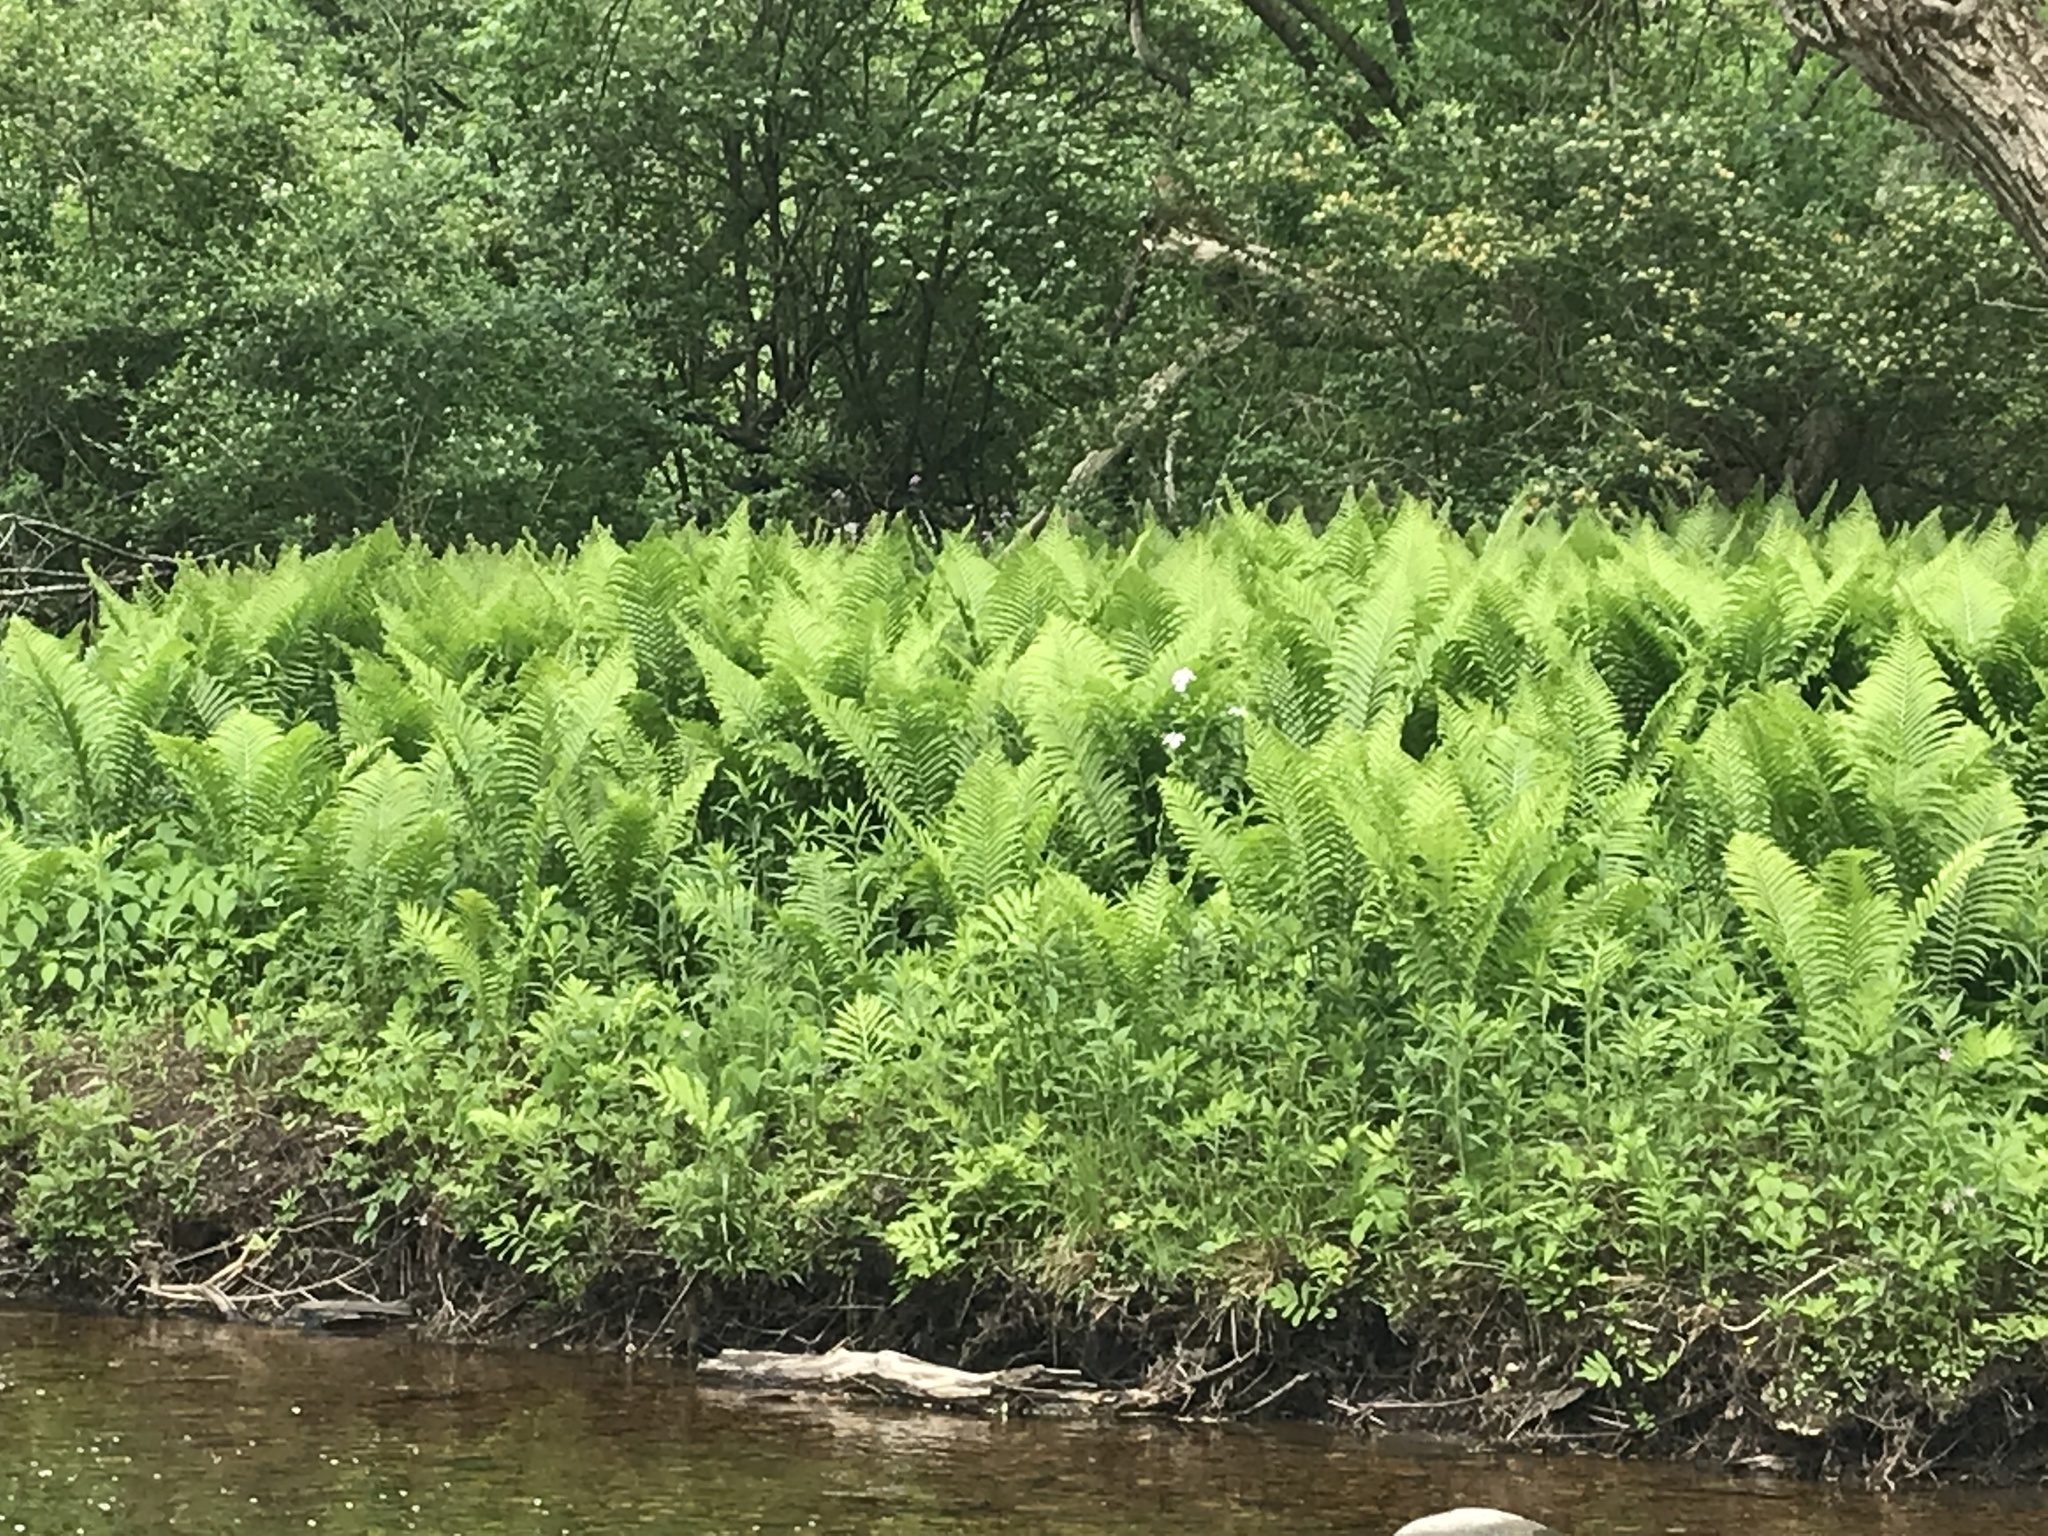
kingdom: Plantae
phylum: Tracheophyta
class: Polypodiopsida
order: Polypodiales
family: Onocleaceae
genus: Matteuccia
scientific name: Matteuccia struthiopteris
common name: Ostrich fern
